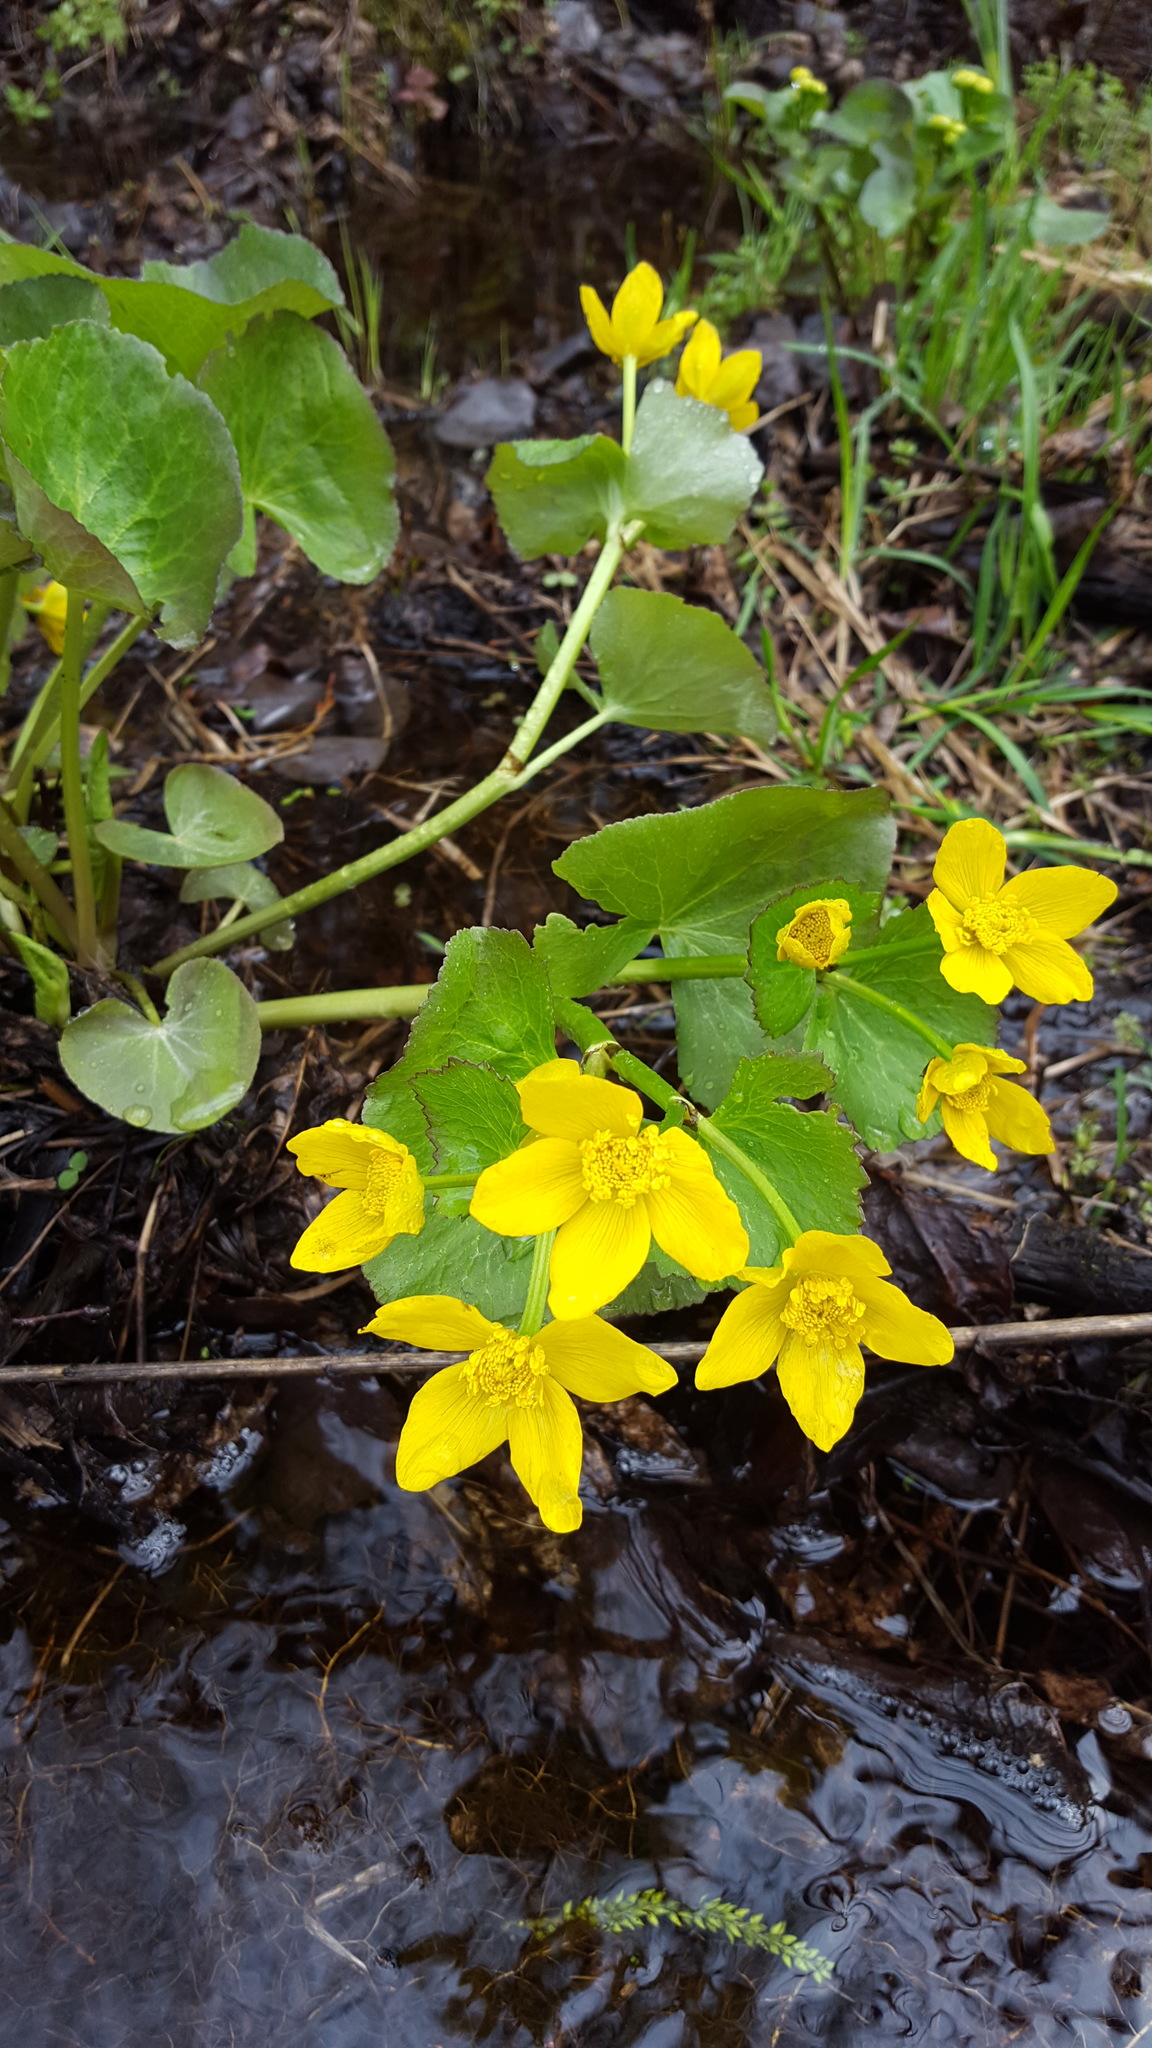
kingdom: Plantae
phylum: Tracheophyta
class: Magnoliopsida
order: Ranunculales
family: Ranunculaceae
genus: Caltha
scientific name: Caltha palustris
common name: Marsh marigold
